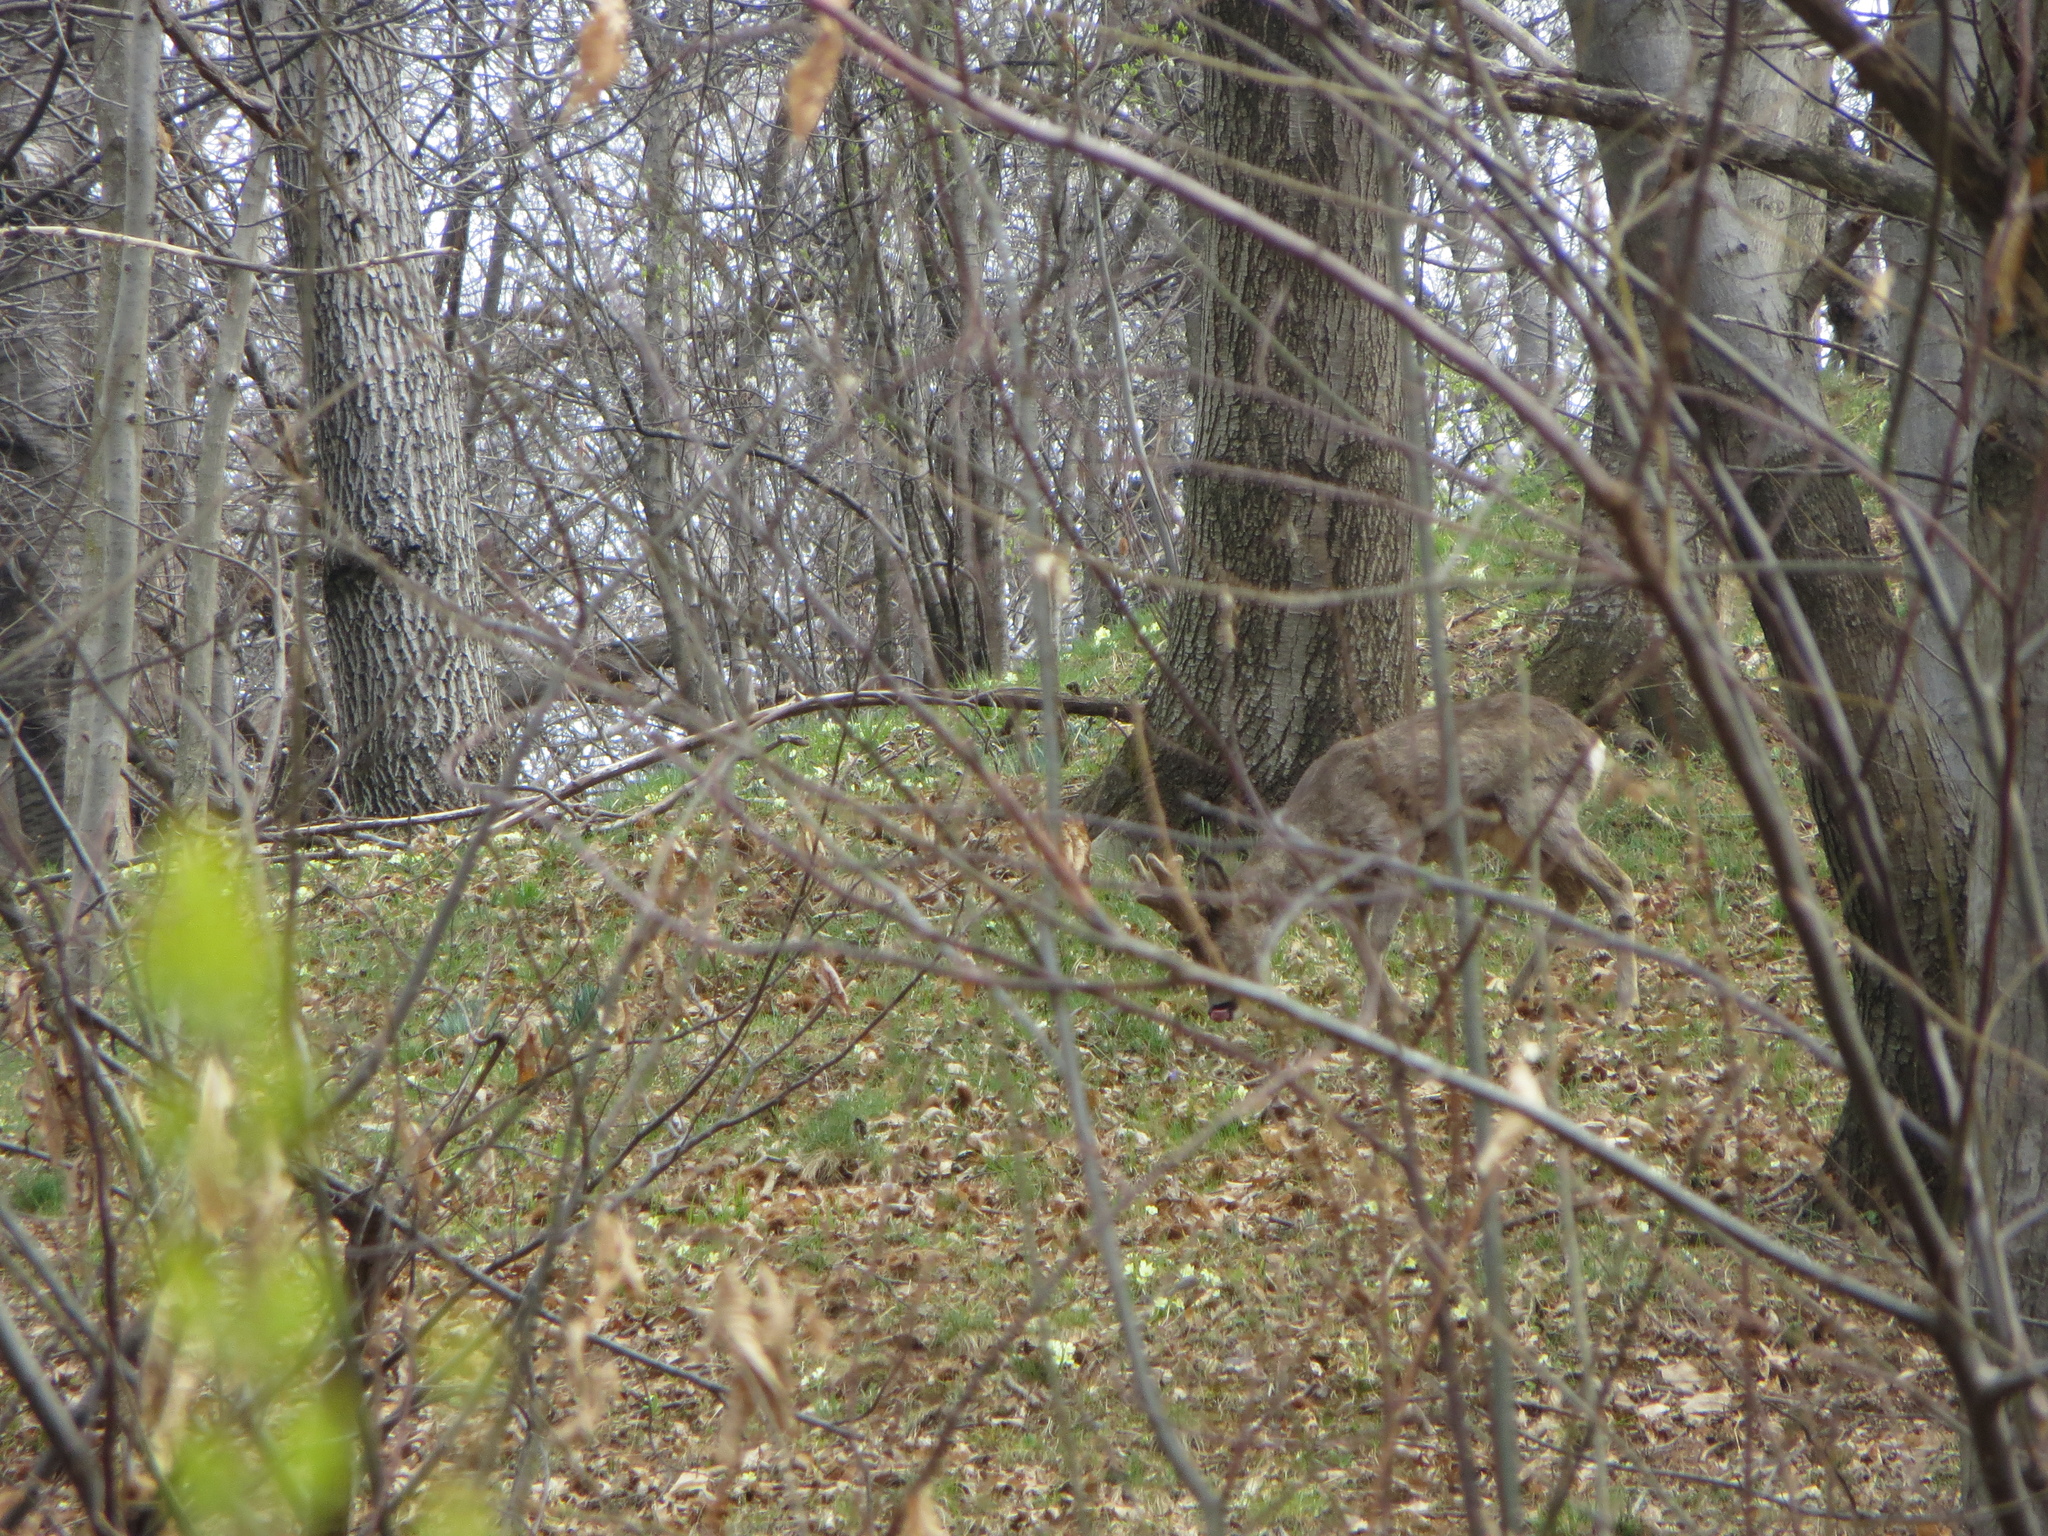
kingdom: Animalia
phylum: Chordata
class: Mammalia
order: Artiodactyla
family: Cervidae
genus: Capreolus
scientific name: Capreolus capreolus
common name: Western roe deer
